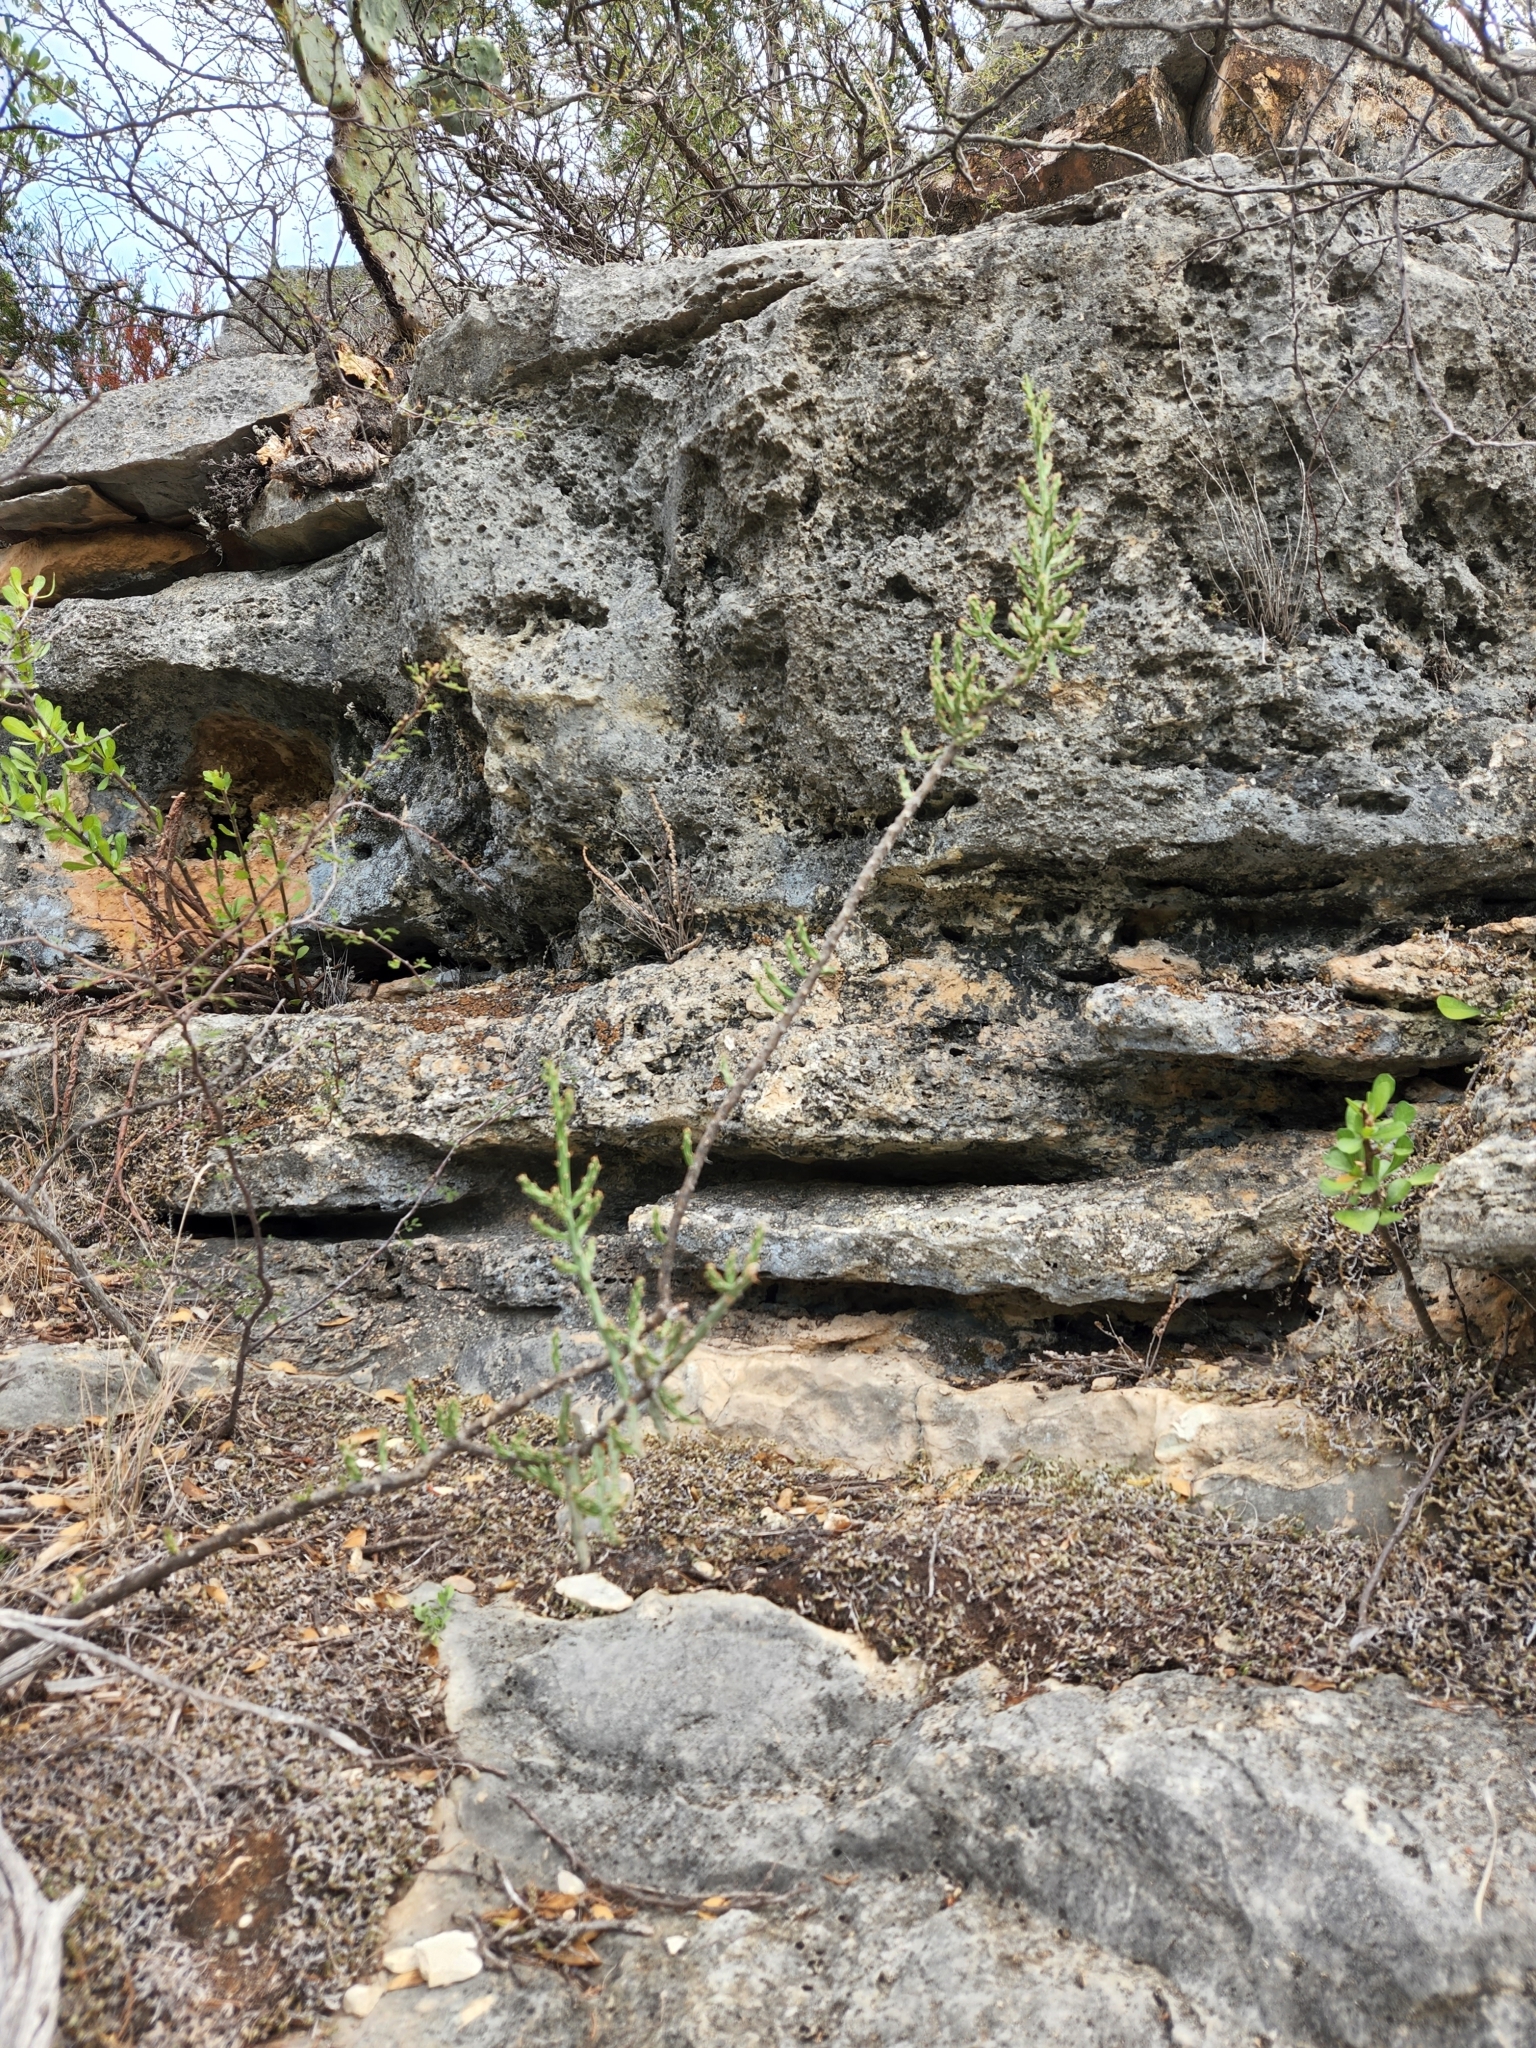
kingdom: Plantae
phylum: Tracheophyta
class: Magnoliopsida
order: Caryophyllales
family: Cactaceae
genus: Cylindropuntia
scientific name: Cylindropuntia leptocaulis
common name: Christmas cactus
